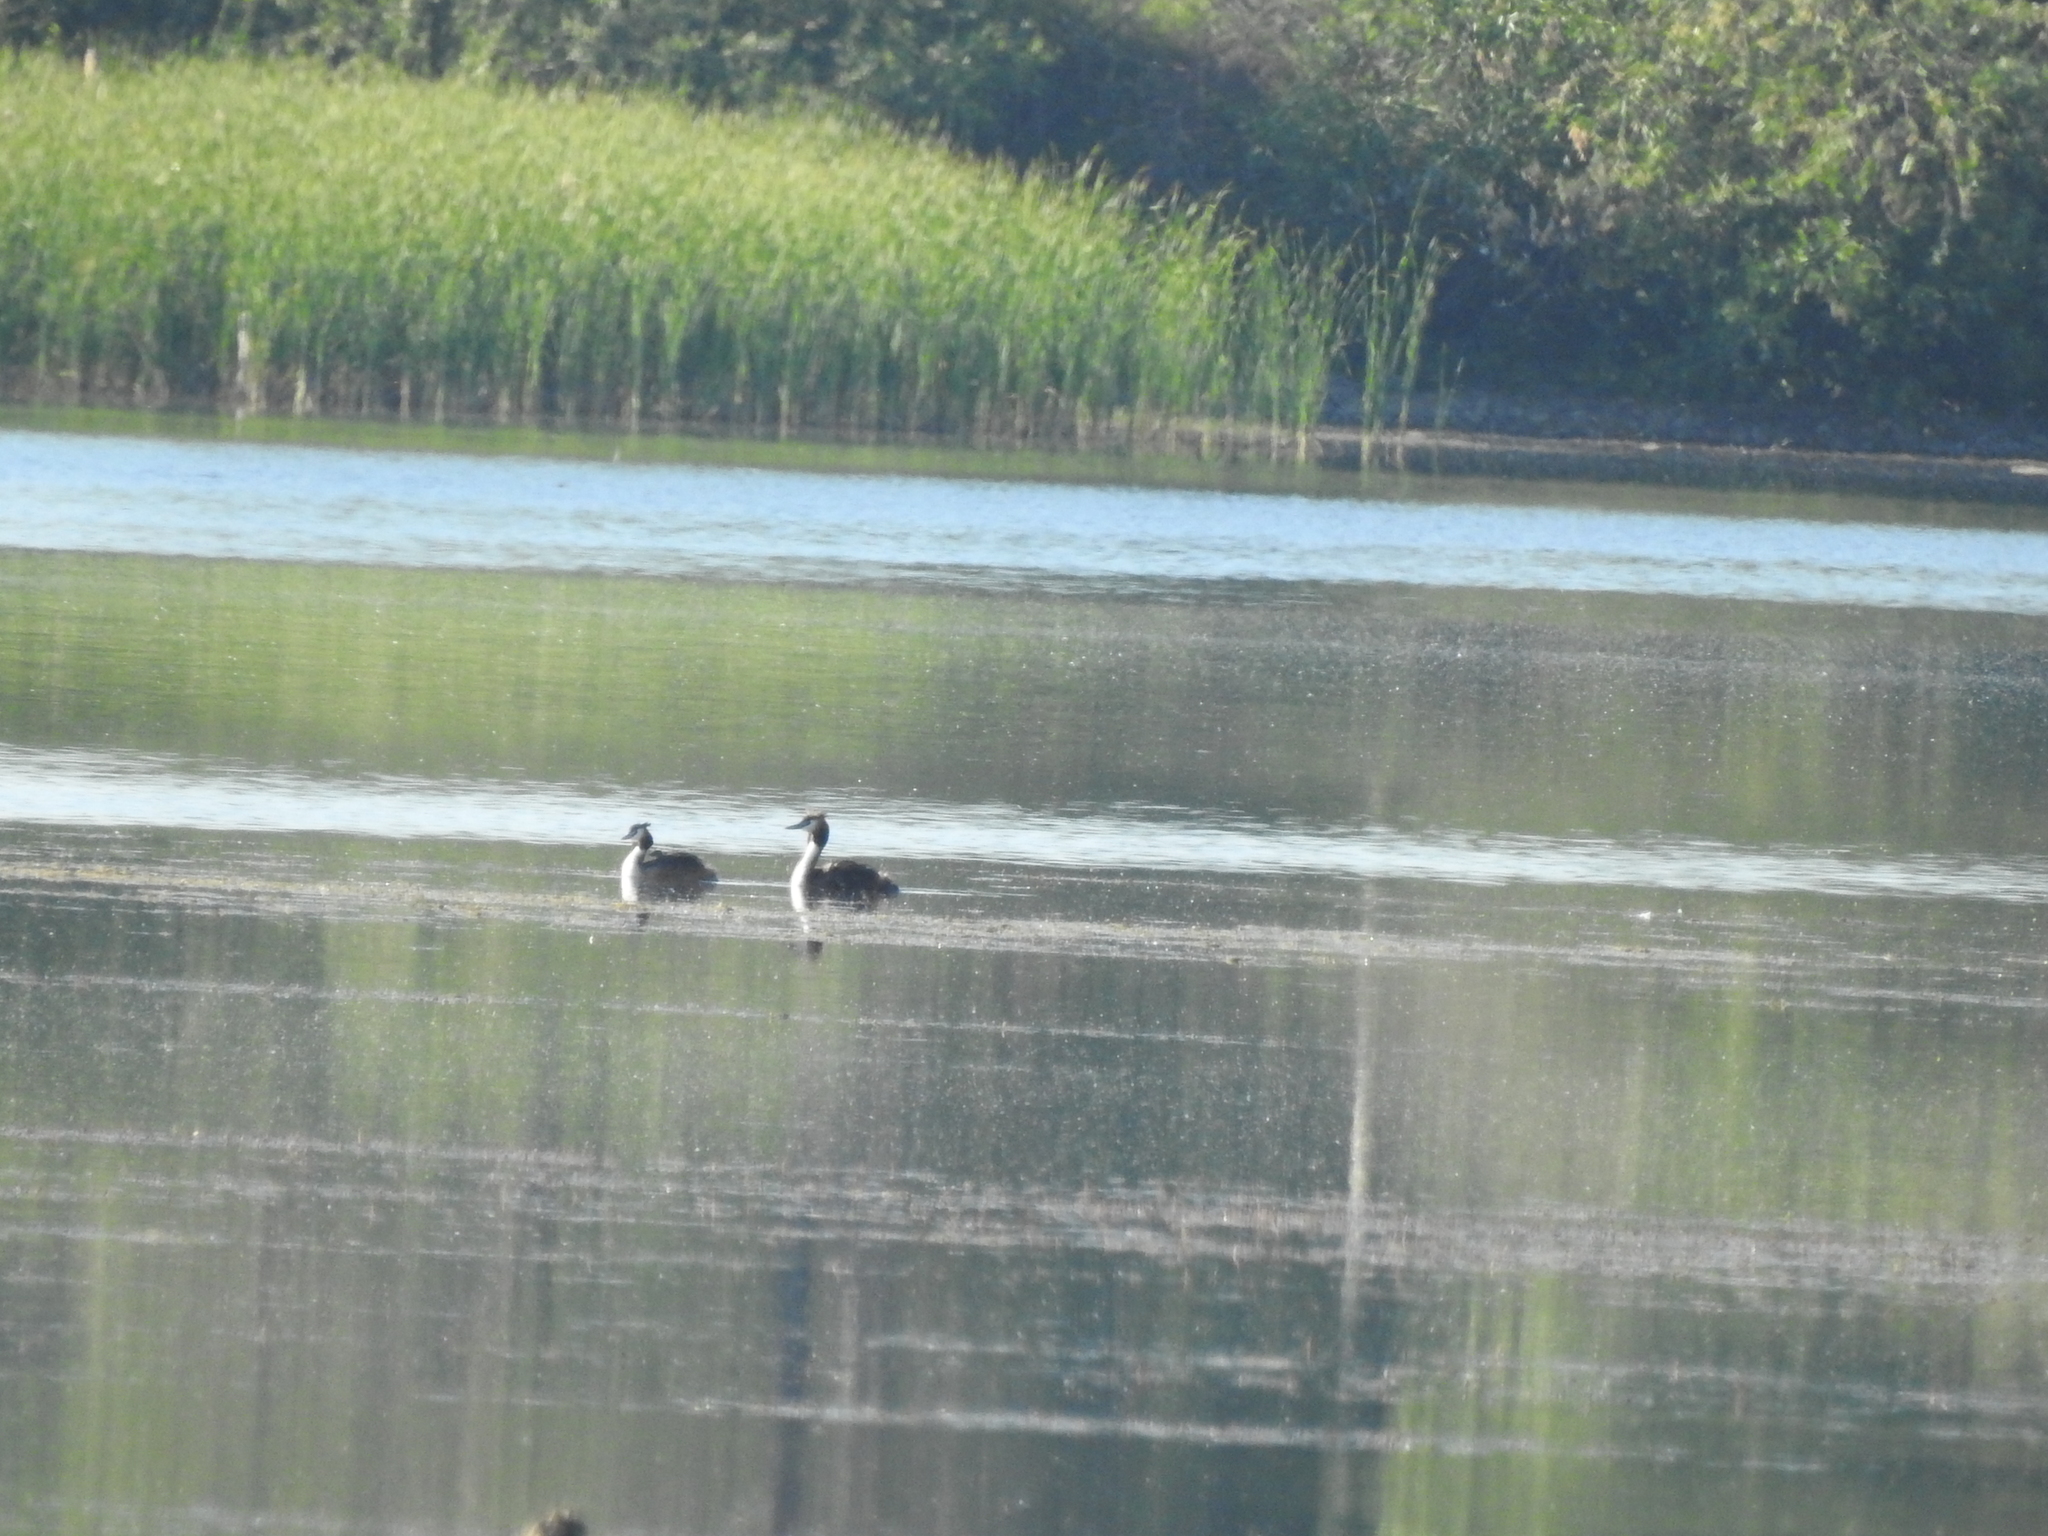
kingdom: Animalia
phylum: Chordata
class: Aves
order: Podicipediformes
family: Podicipedidae
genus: Podiceps
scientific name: Podiceps cristatus
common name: Great crested grebe
